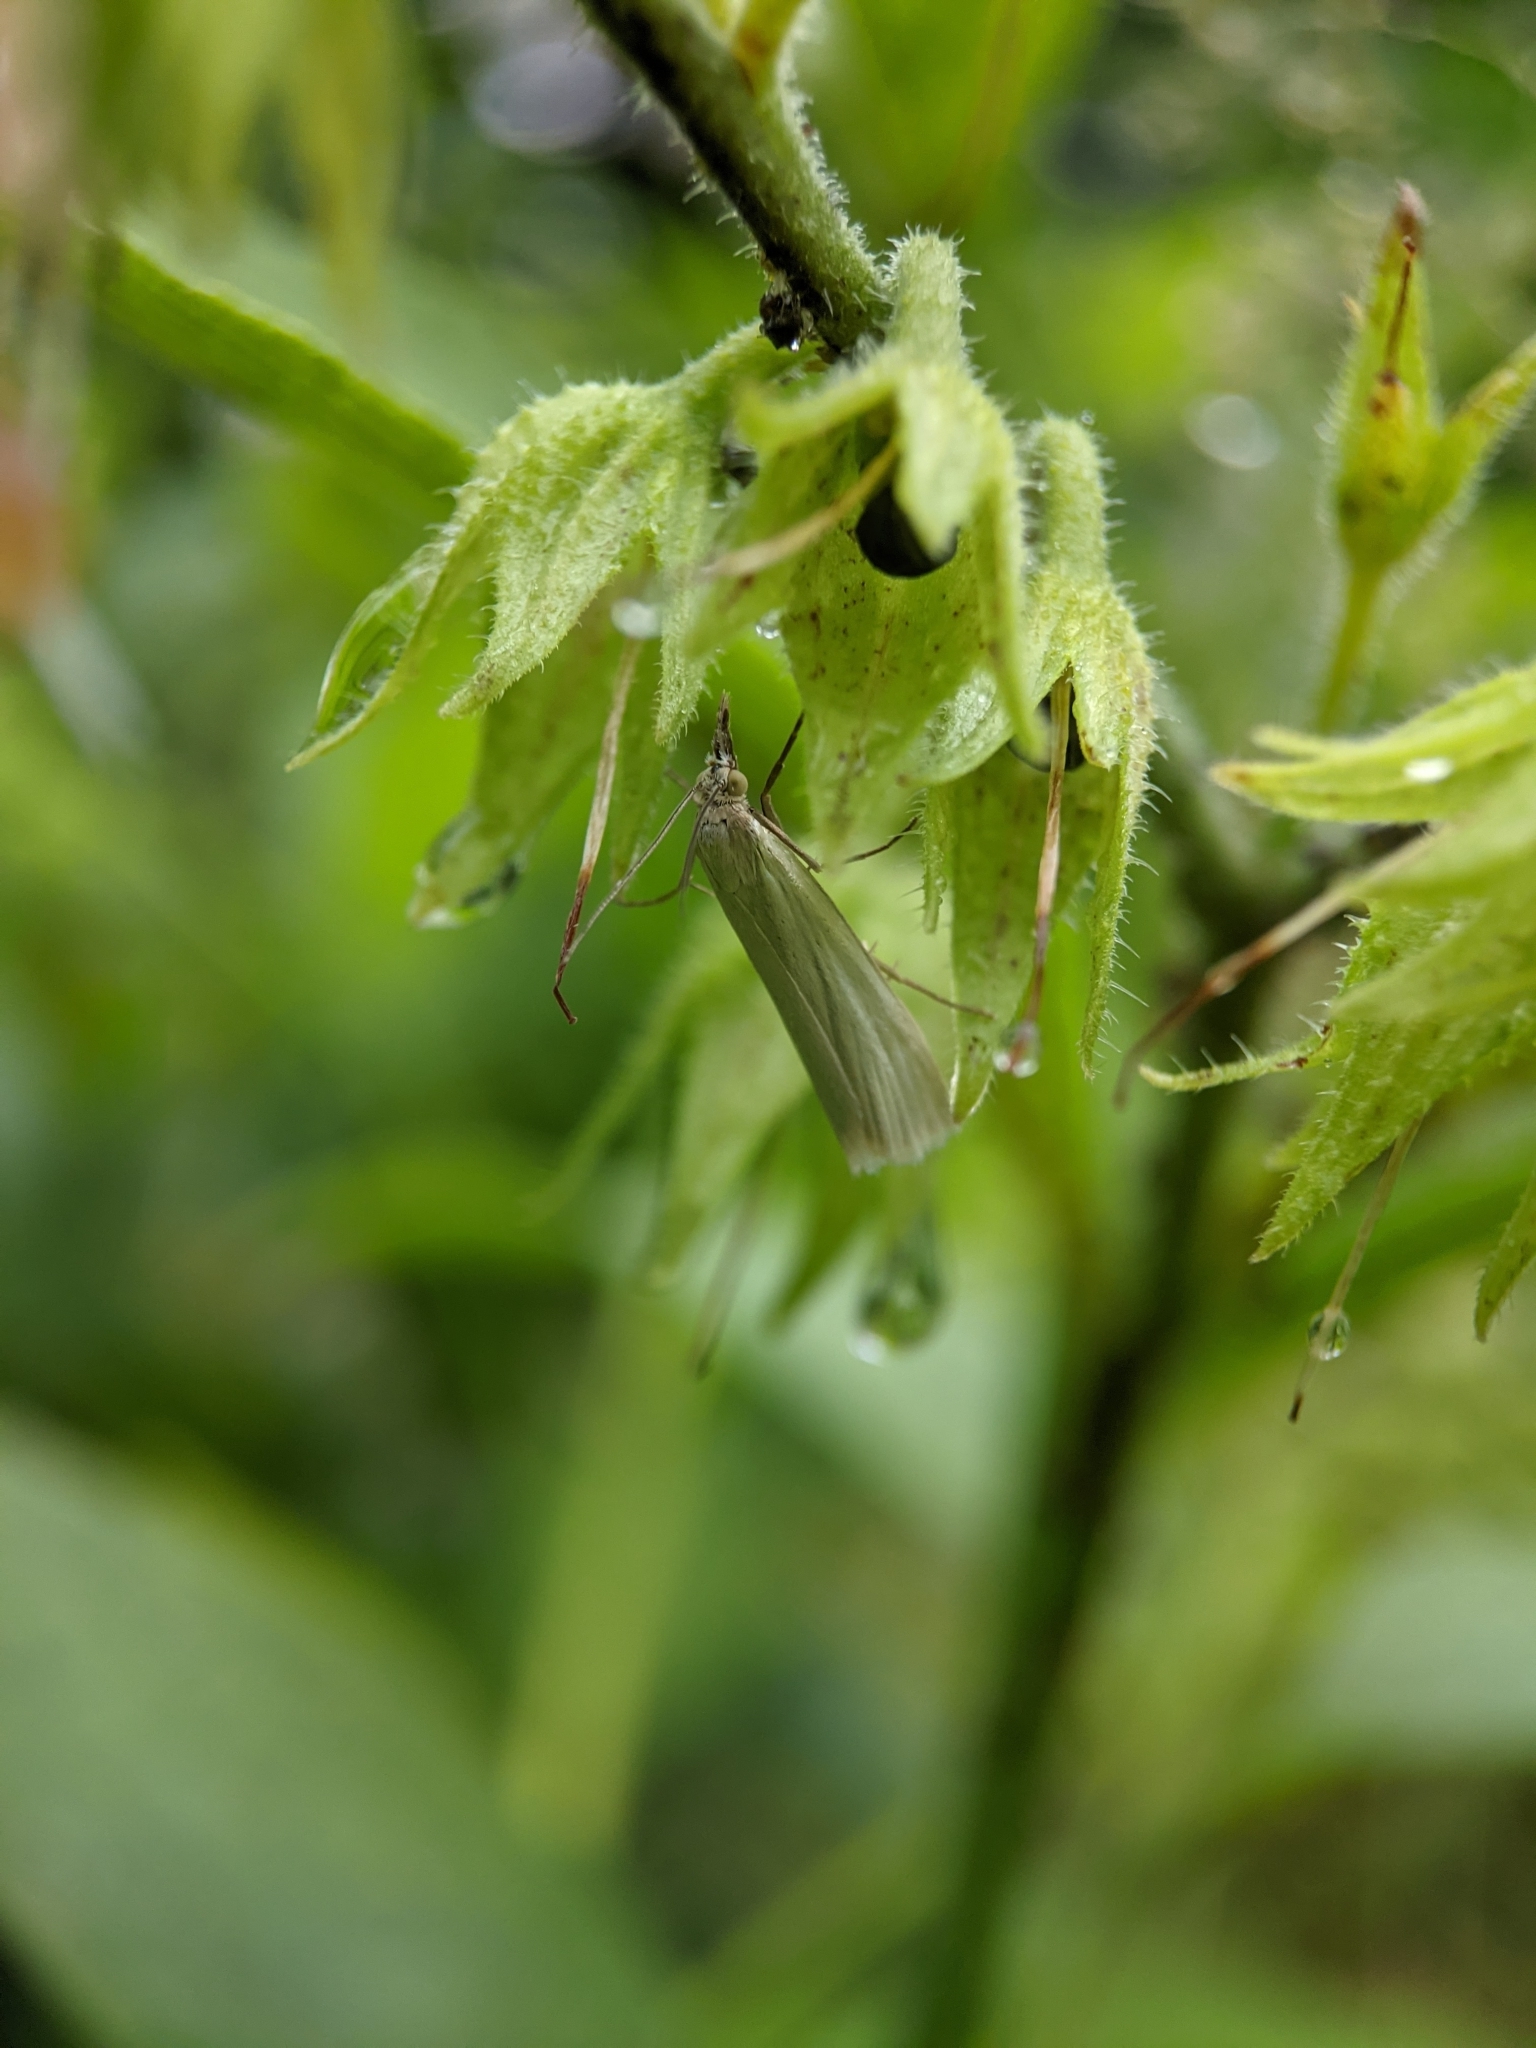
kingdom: Animalia
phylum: Arthropoda
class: Insecta
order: Lepidoptera
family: Crambidae
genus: Crambus
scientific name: Crambus perlellus
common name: Yellow satin veneer
